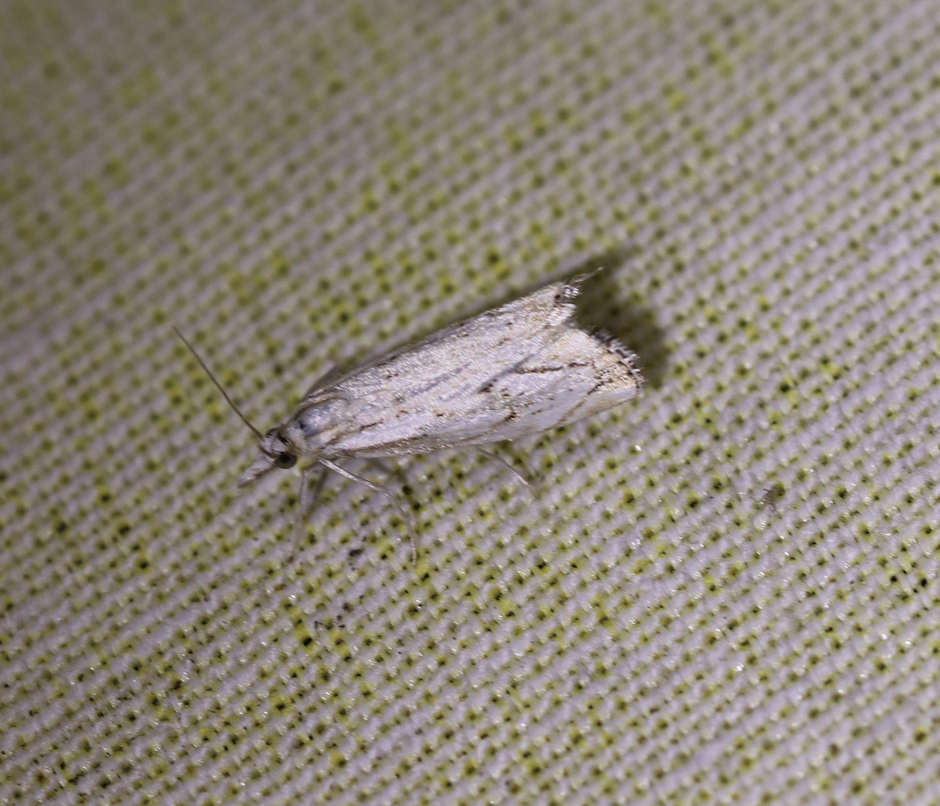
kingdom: Animalia
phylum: Arthropoda
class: Insecta
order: Lepidoptera
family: Crambidae
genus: Catoptria
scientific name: Catoptria falsella
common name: Chequered grass-veneer
